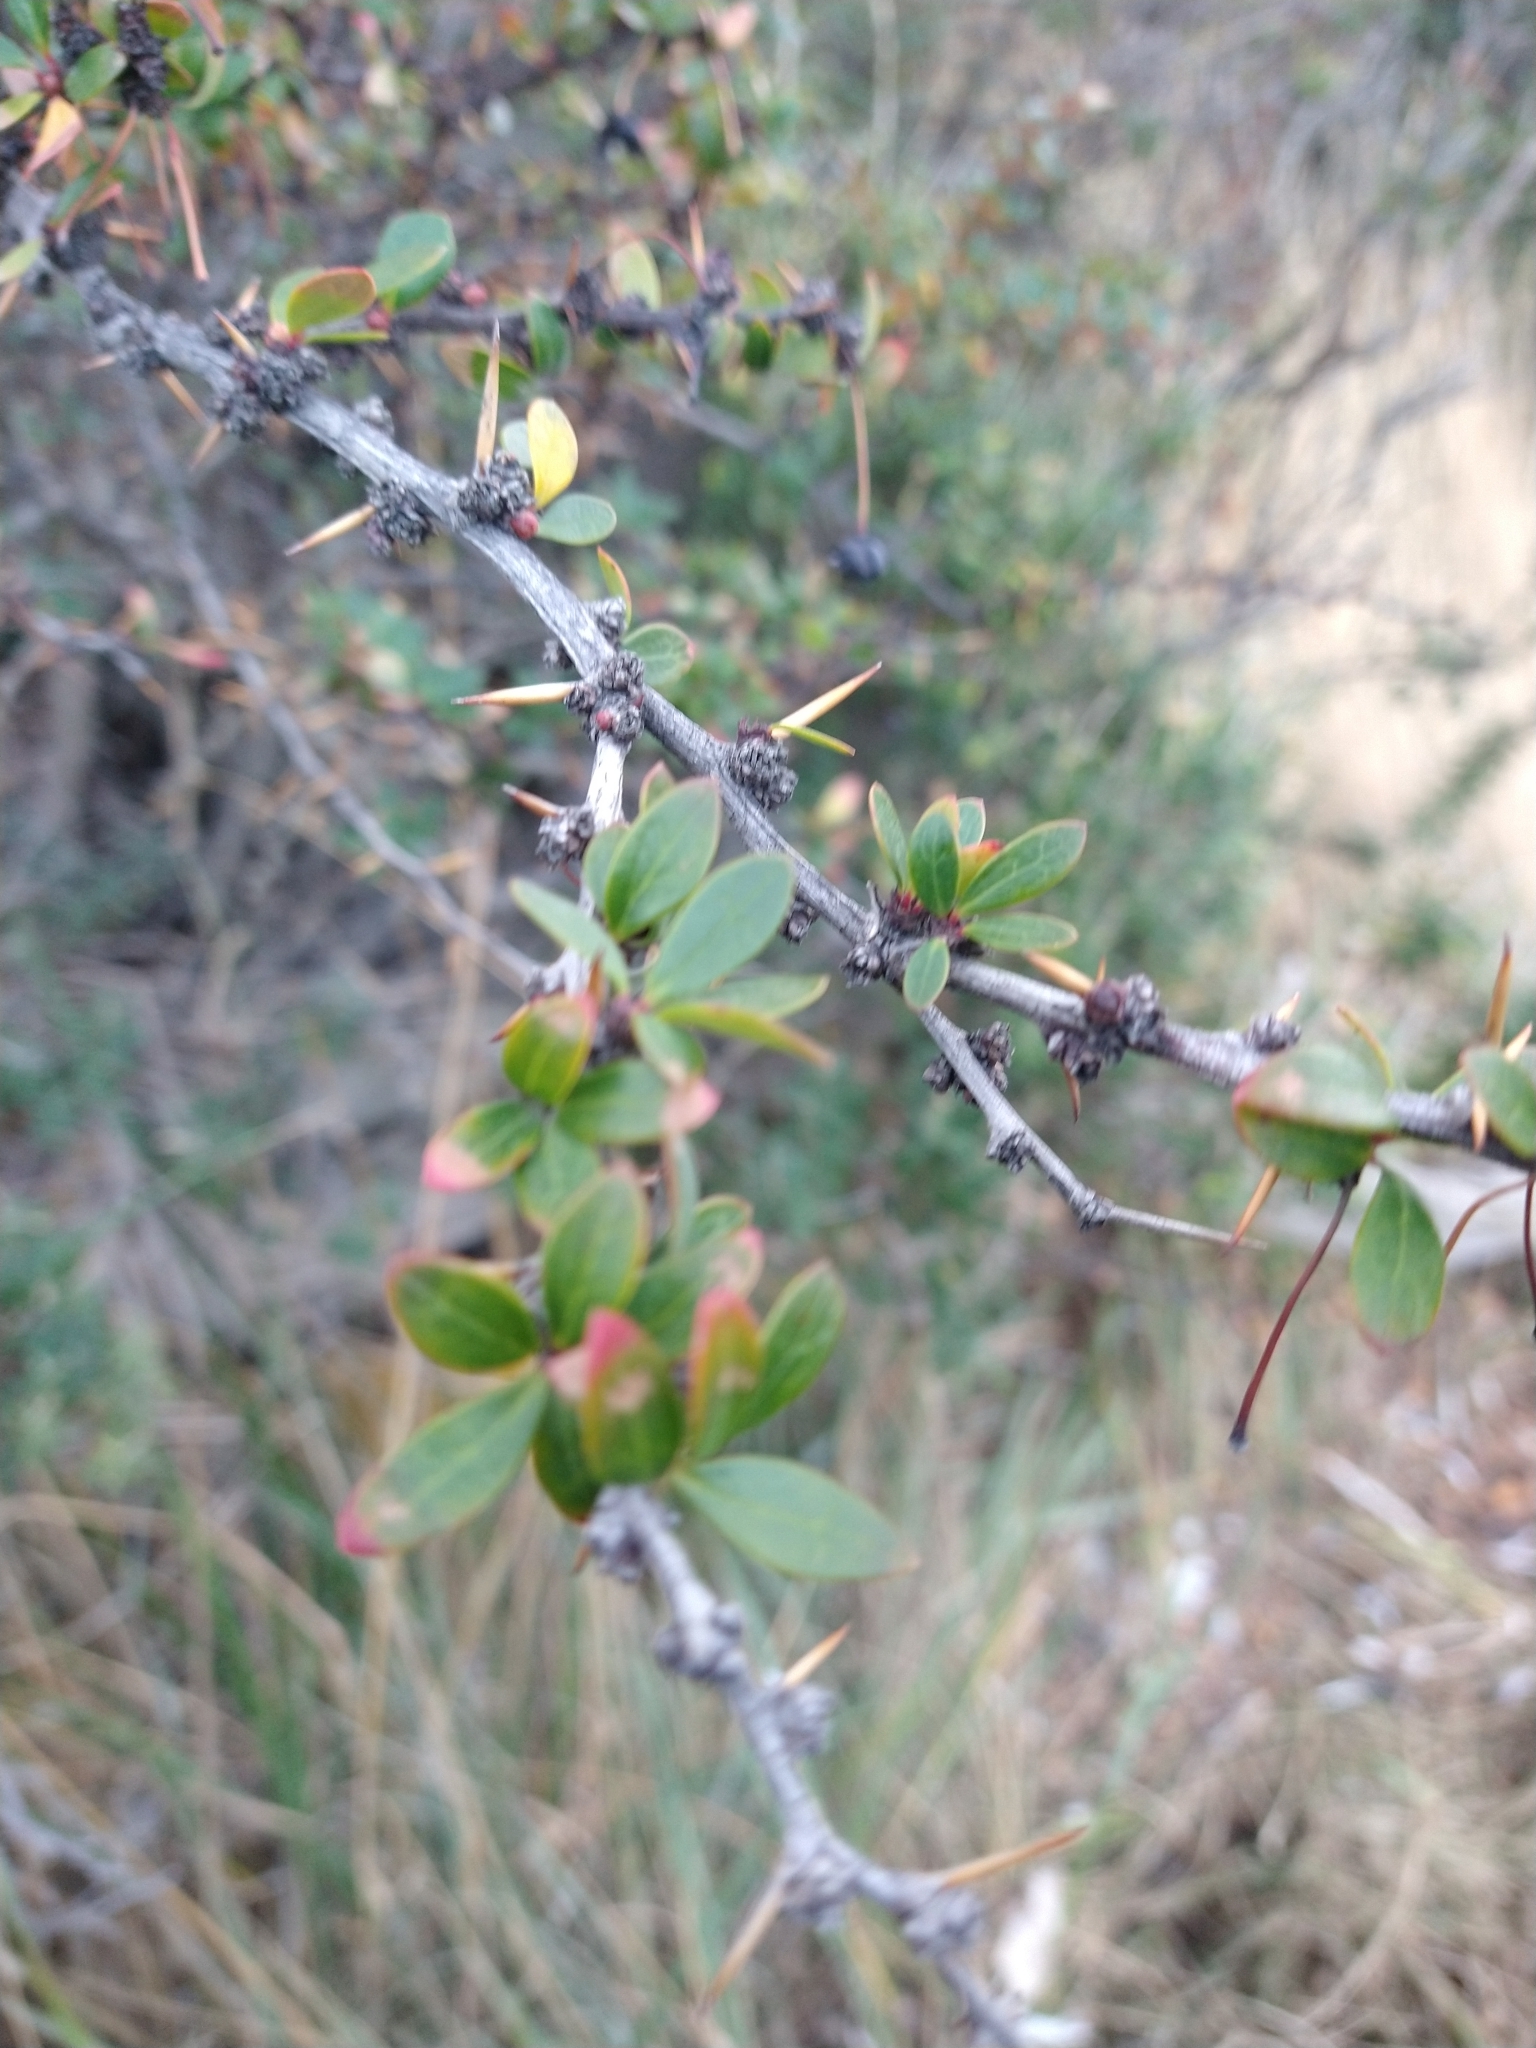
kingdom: Plantae
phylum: Tracheophyta
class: Magnoliopsida
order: Ranunculales
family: Berberidaceae
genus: Berberis
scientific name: Berberis microphylla
